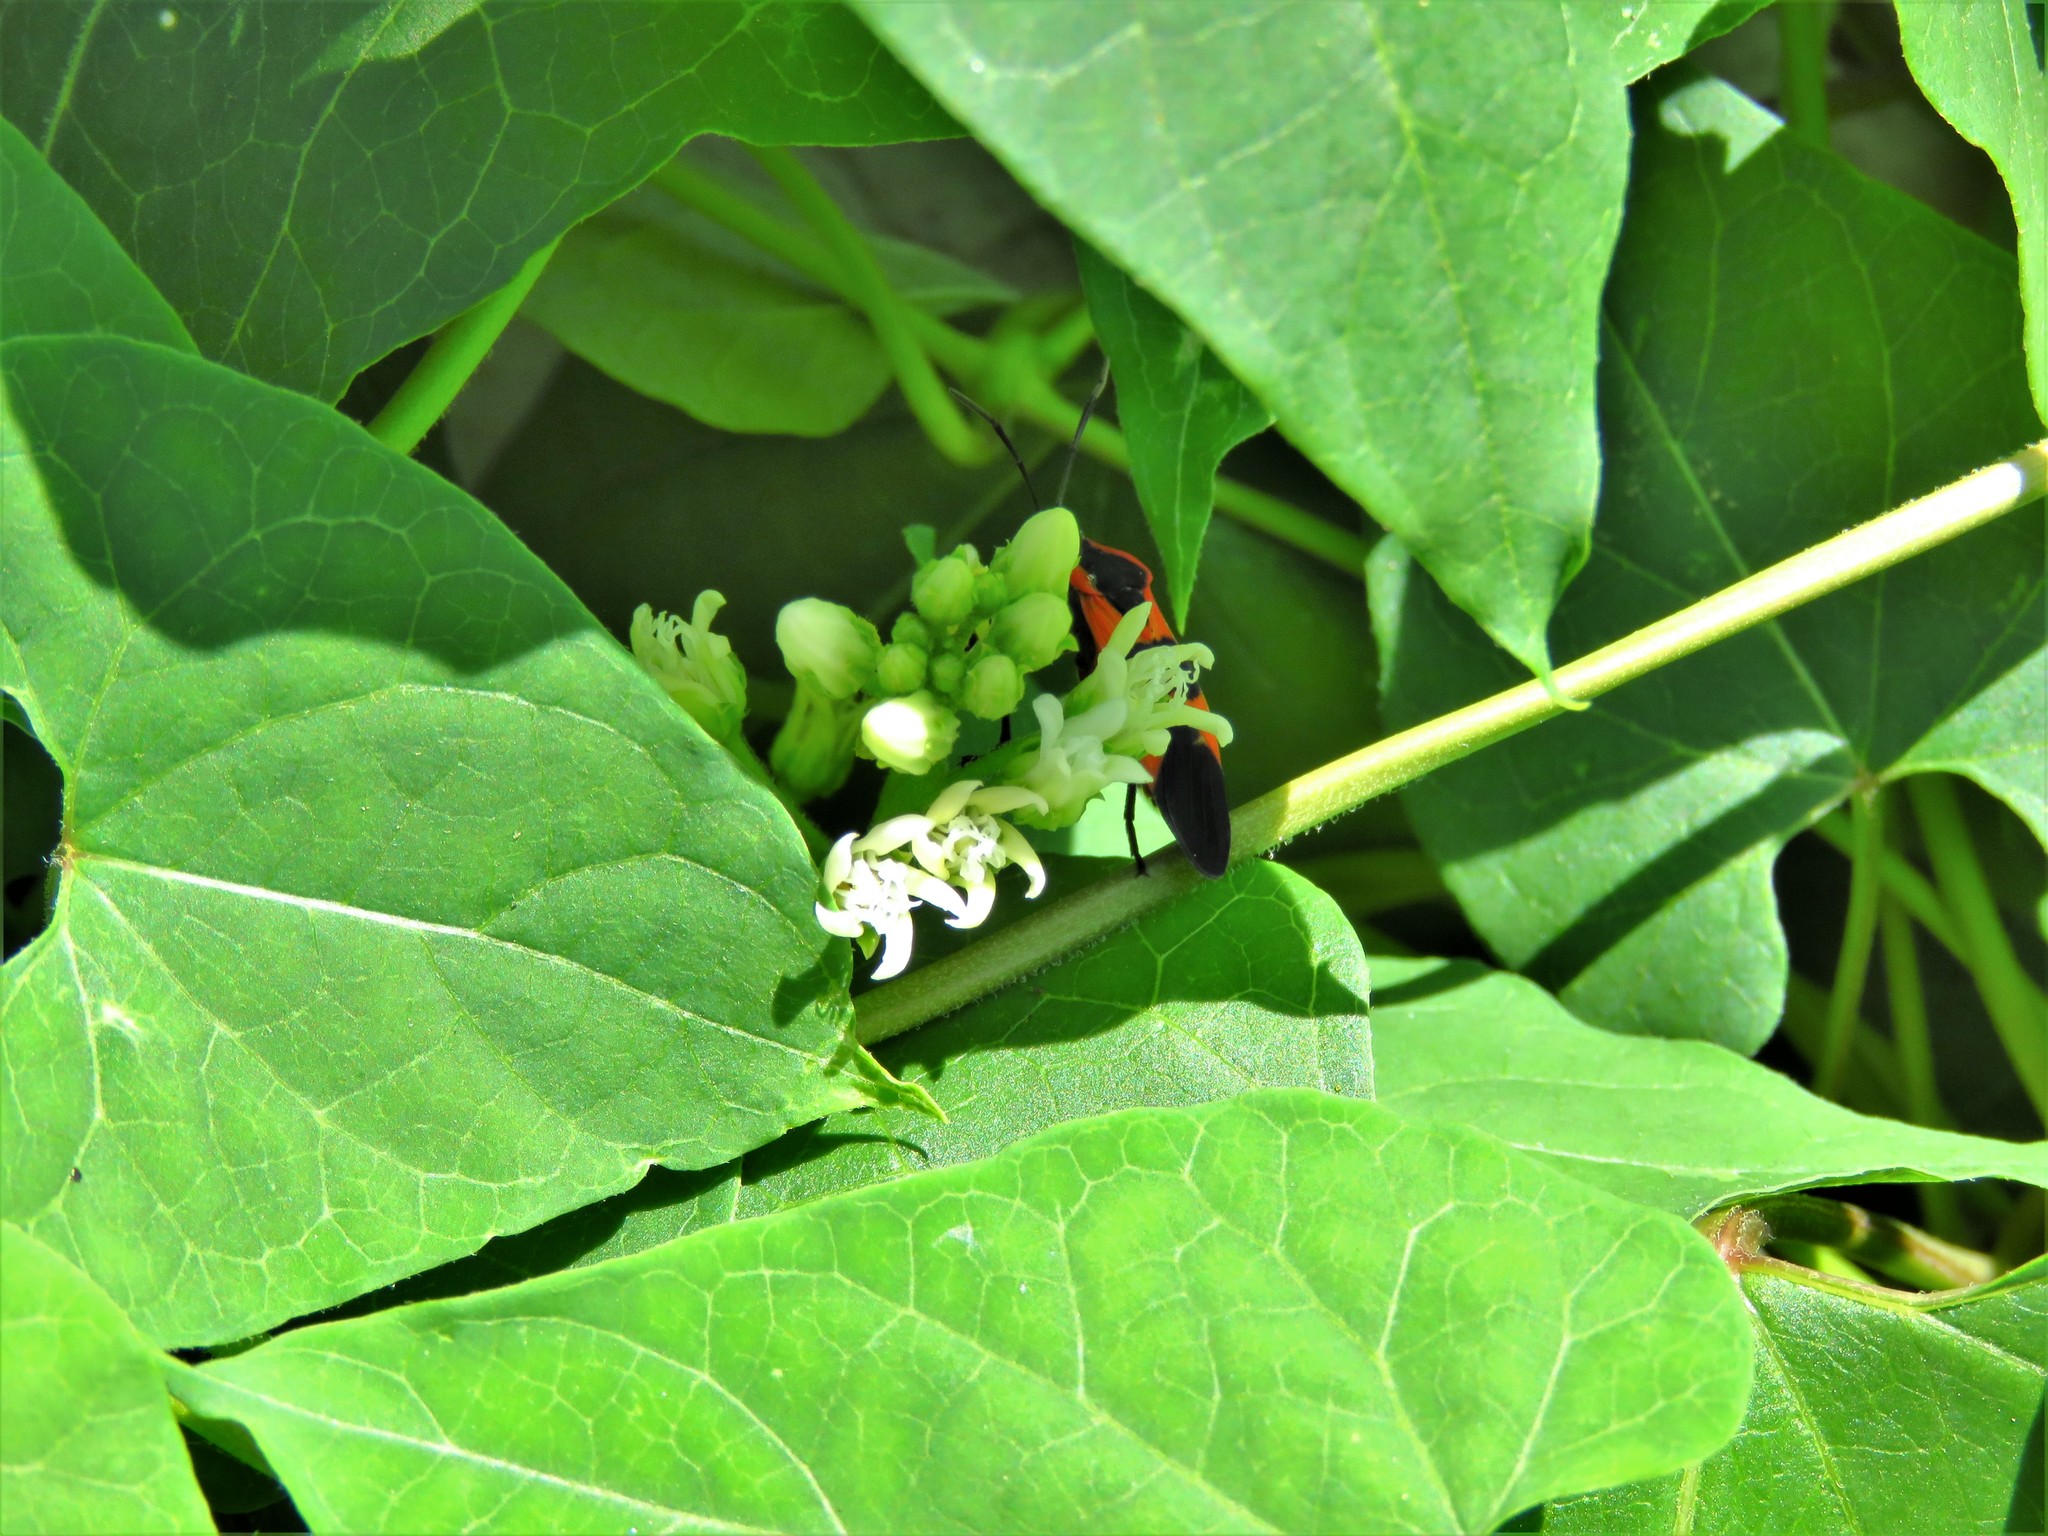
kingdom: Animalia
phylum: Arthropoda
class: Insecta
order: Hemiptera
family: Lygaeidae
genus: Oncopeltus
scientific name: Oncopeltus fasciatus
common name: Large milkweed bug
